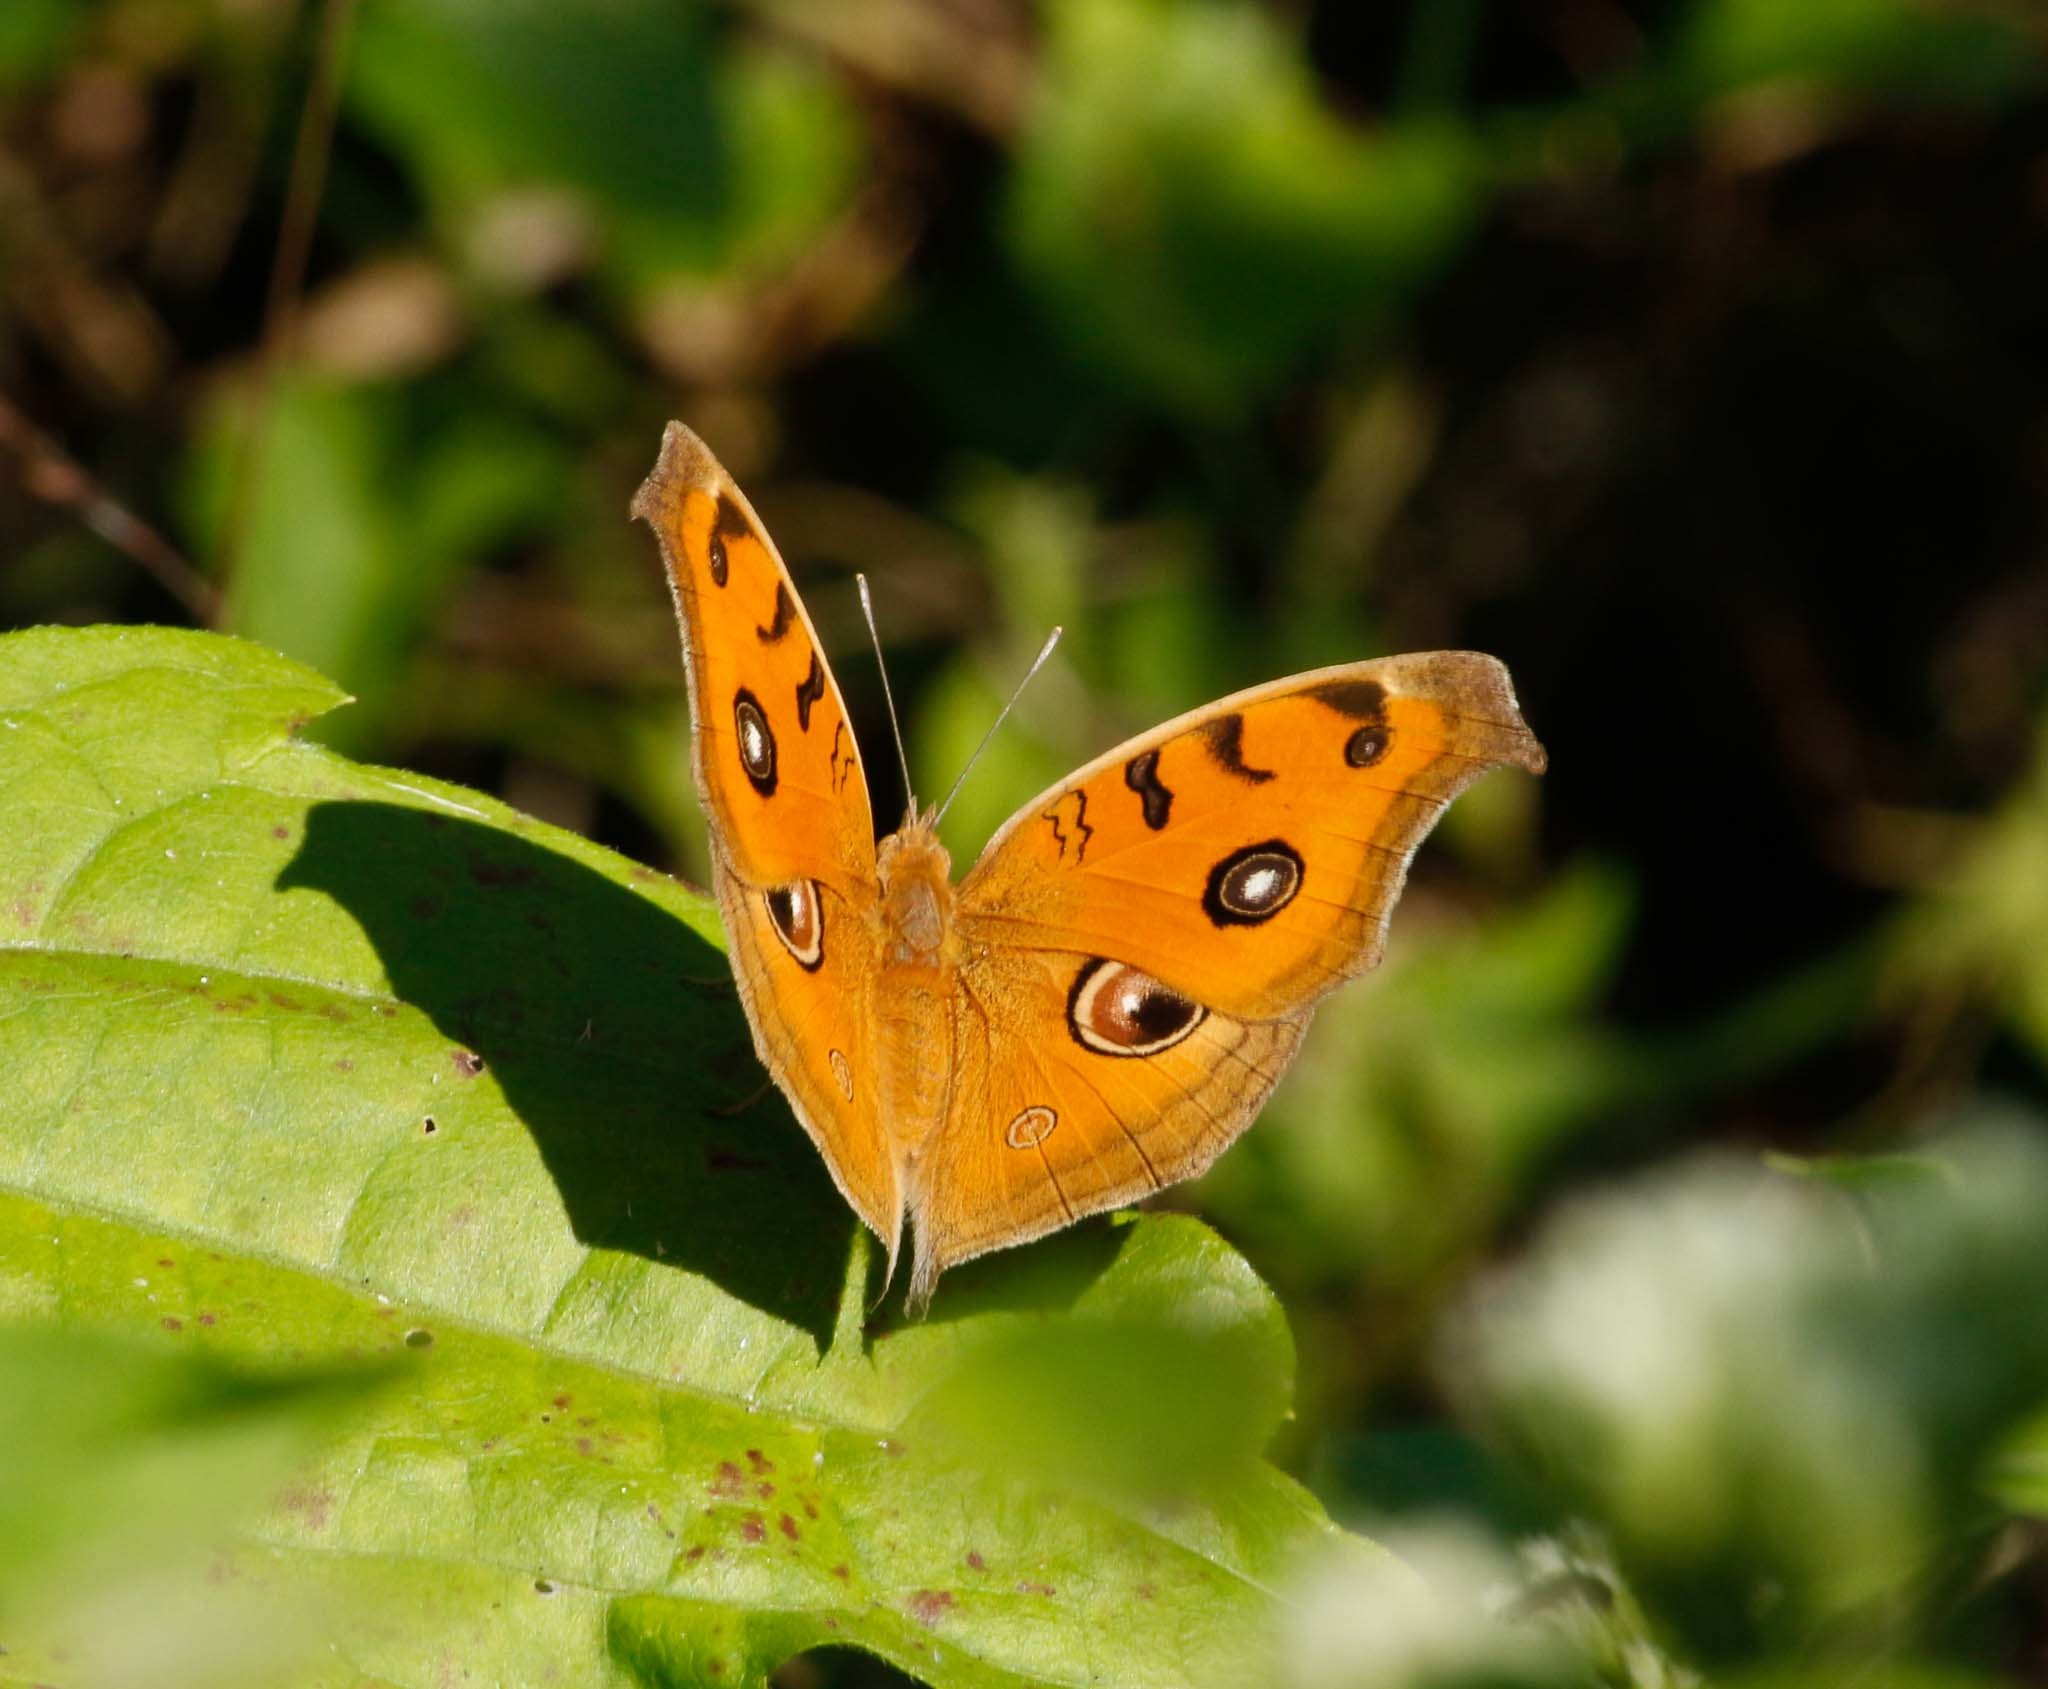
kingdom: Animalia
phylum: Arthropoda
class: Insecta
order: Lepidoptera
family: Nymphalidae
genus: Junonia
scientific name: Junonia almana
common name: Peacock pansy
